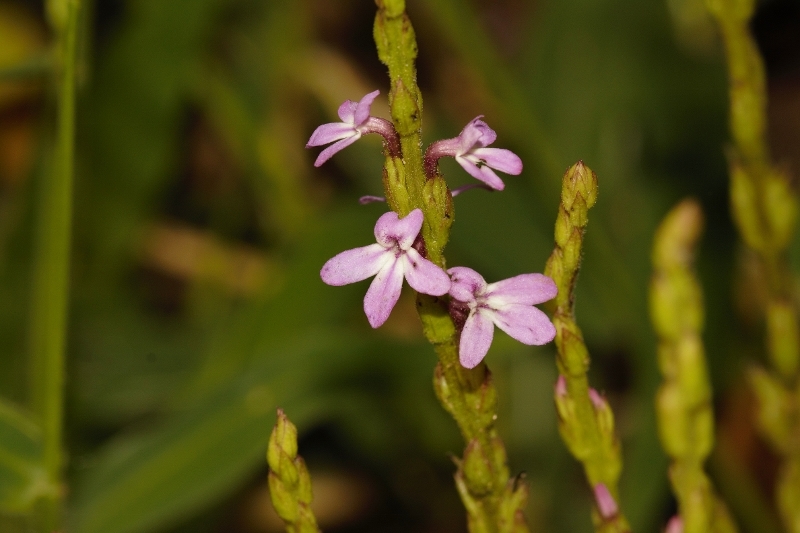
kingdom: Plantae
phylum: Tracheophyta
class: Magnoliopsida
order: Lamiales
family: Orobanchaceae
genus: Striga
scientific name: Striga gesnerioides
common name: Cowpea witchweed
